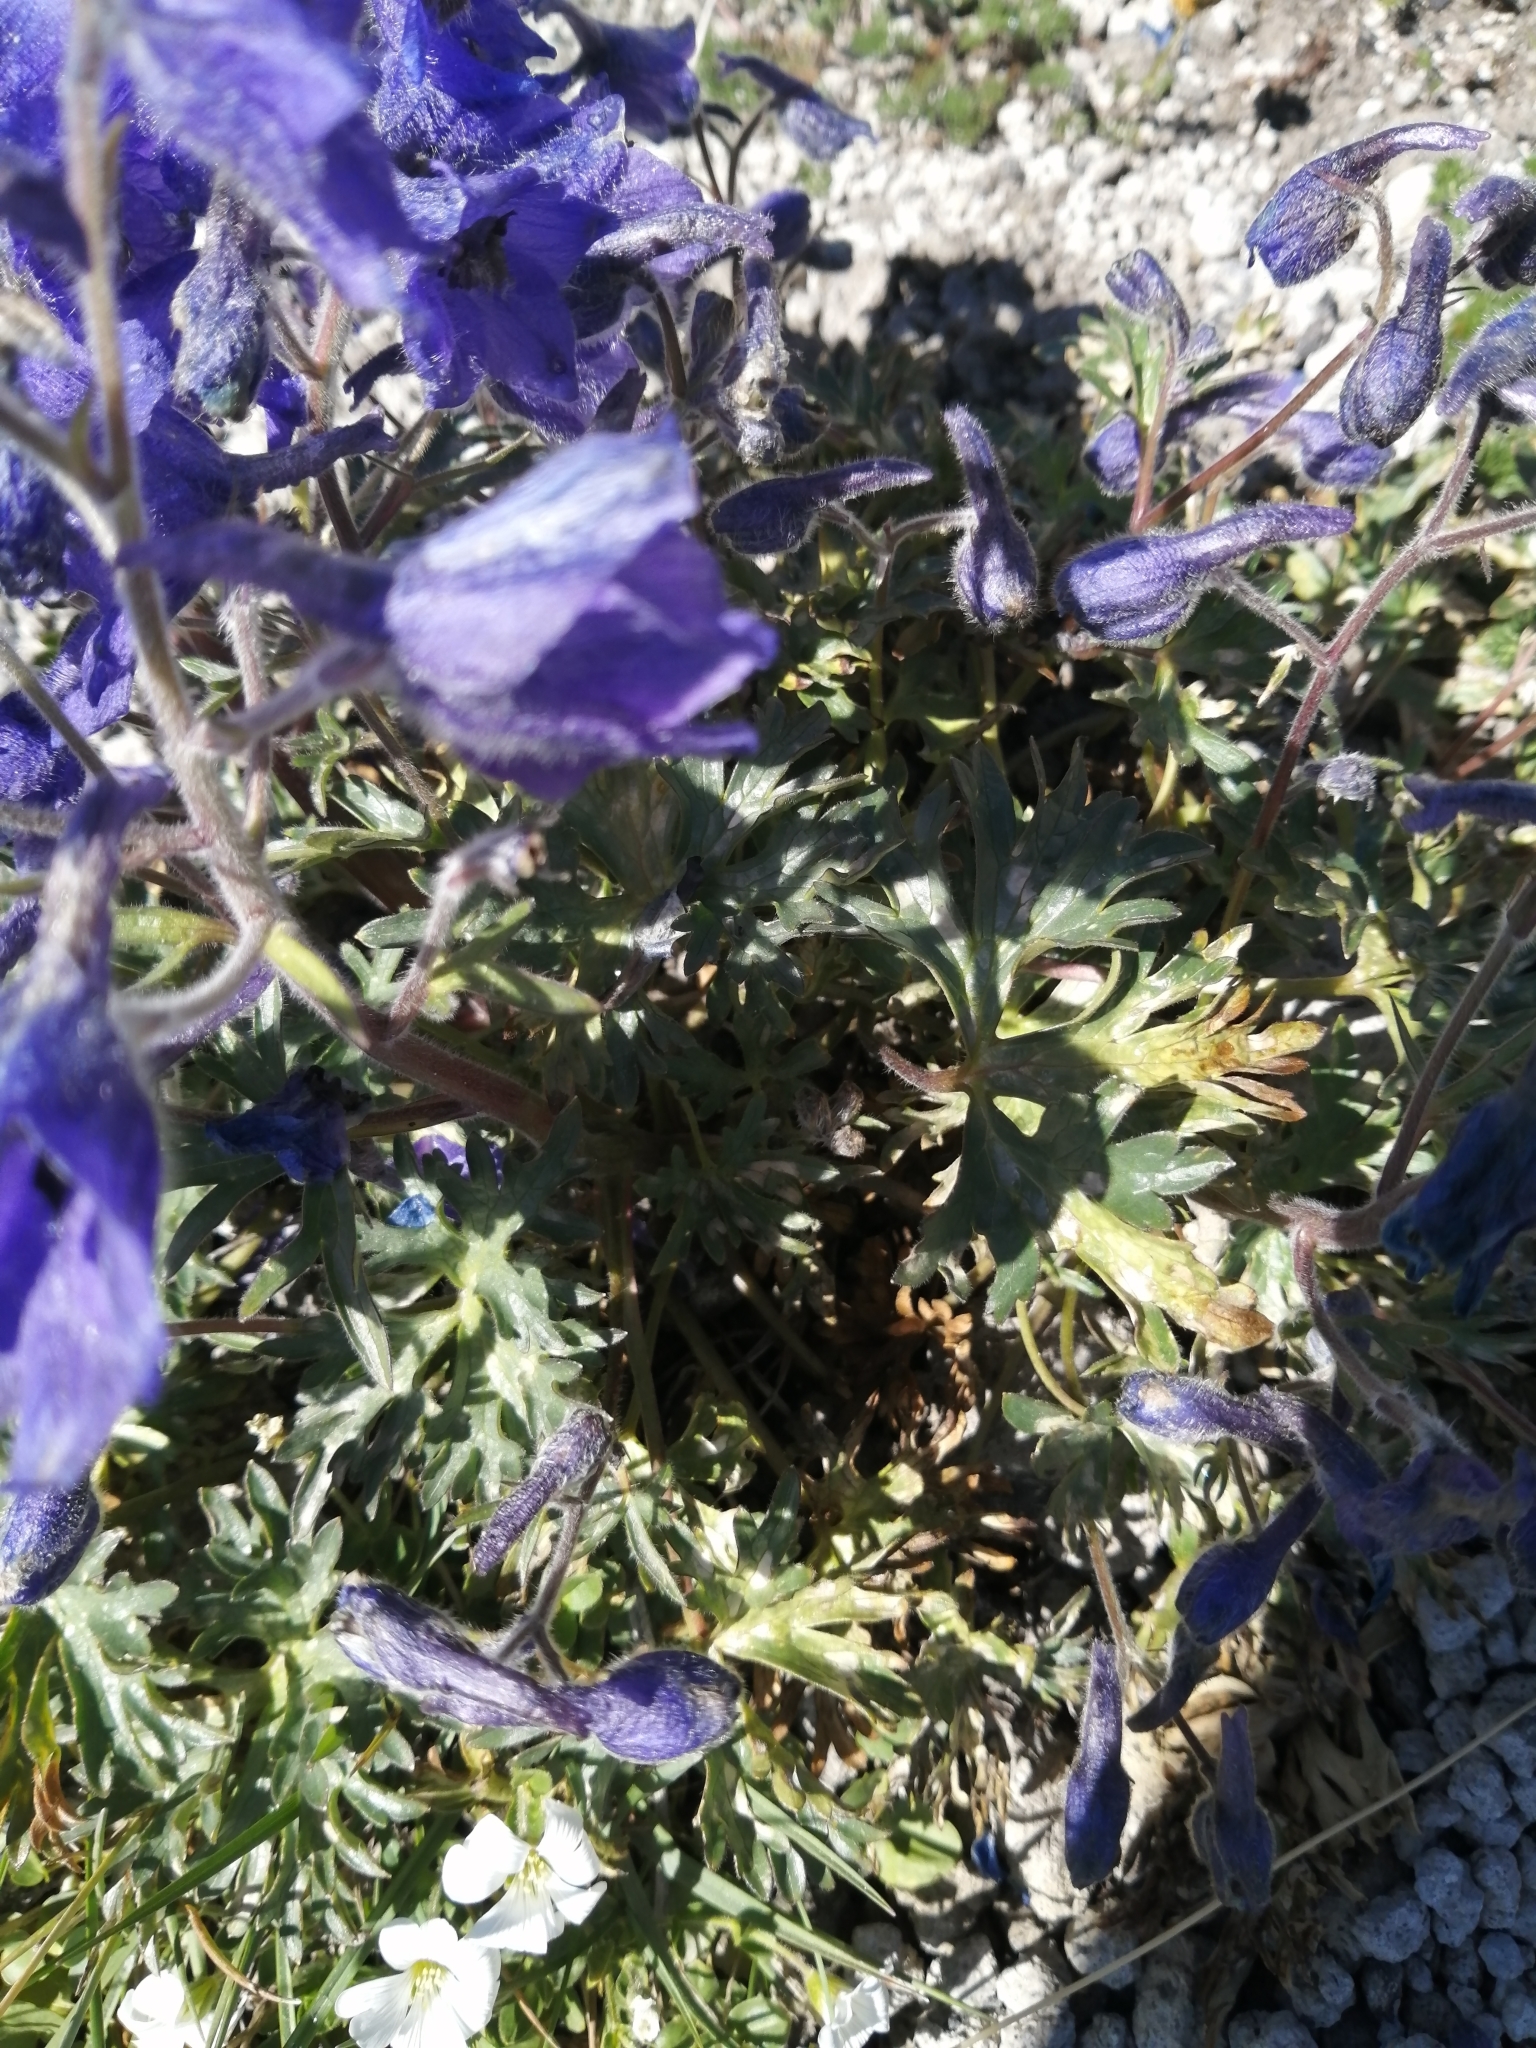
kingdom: Plantae
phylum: Tracheophyta
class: Magnoliopsida
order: Ranunculales
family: Ranunculaceae
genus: Delphinium
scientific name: Delphinium caucasicum
